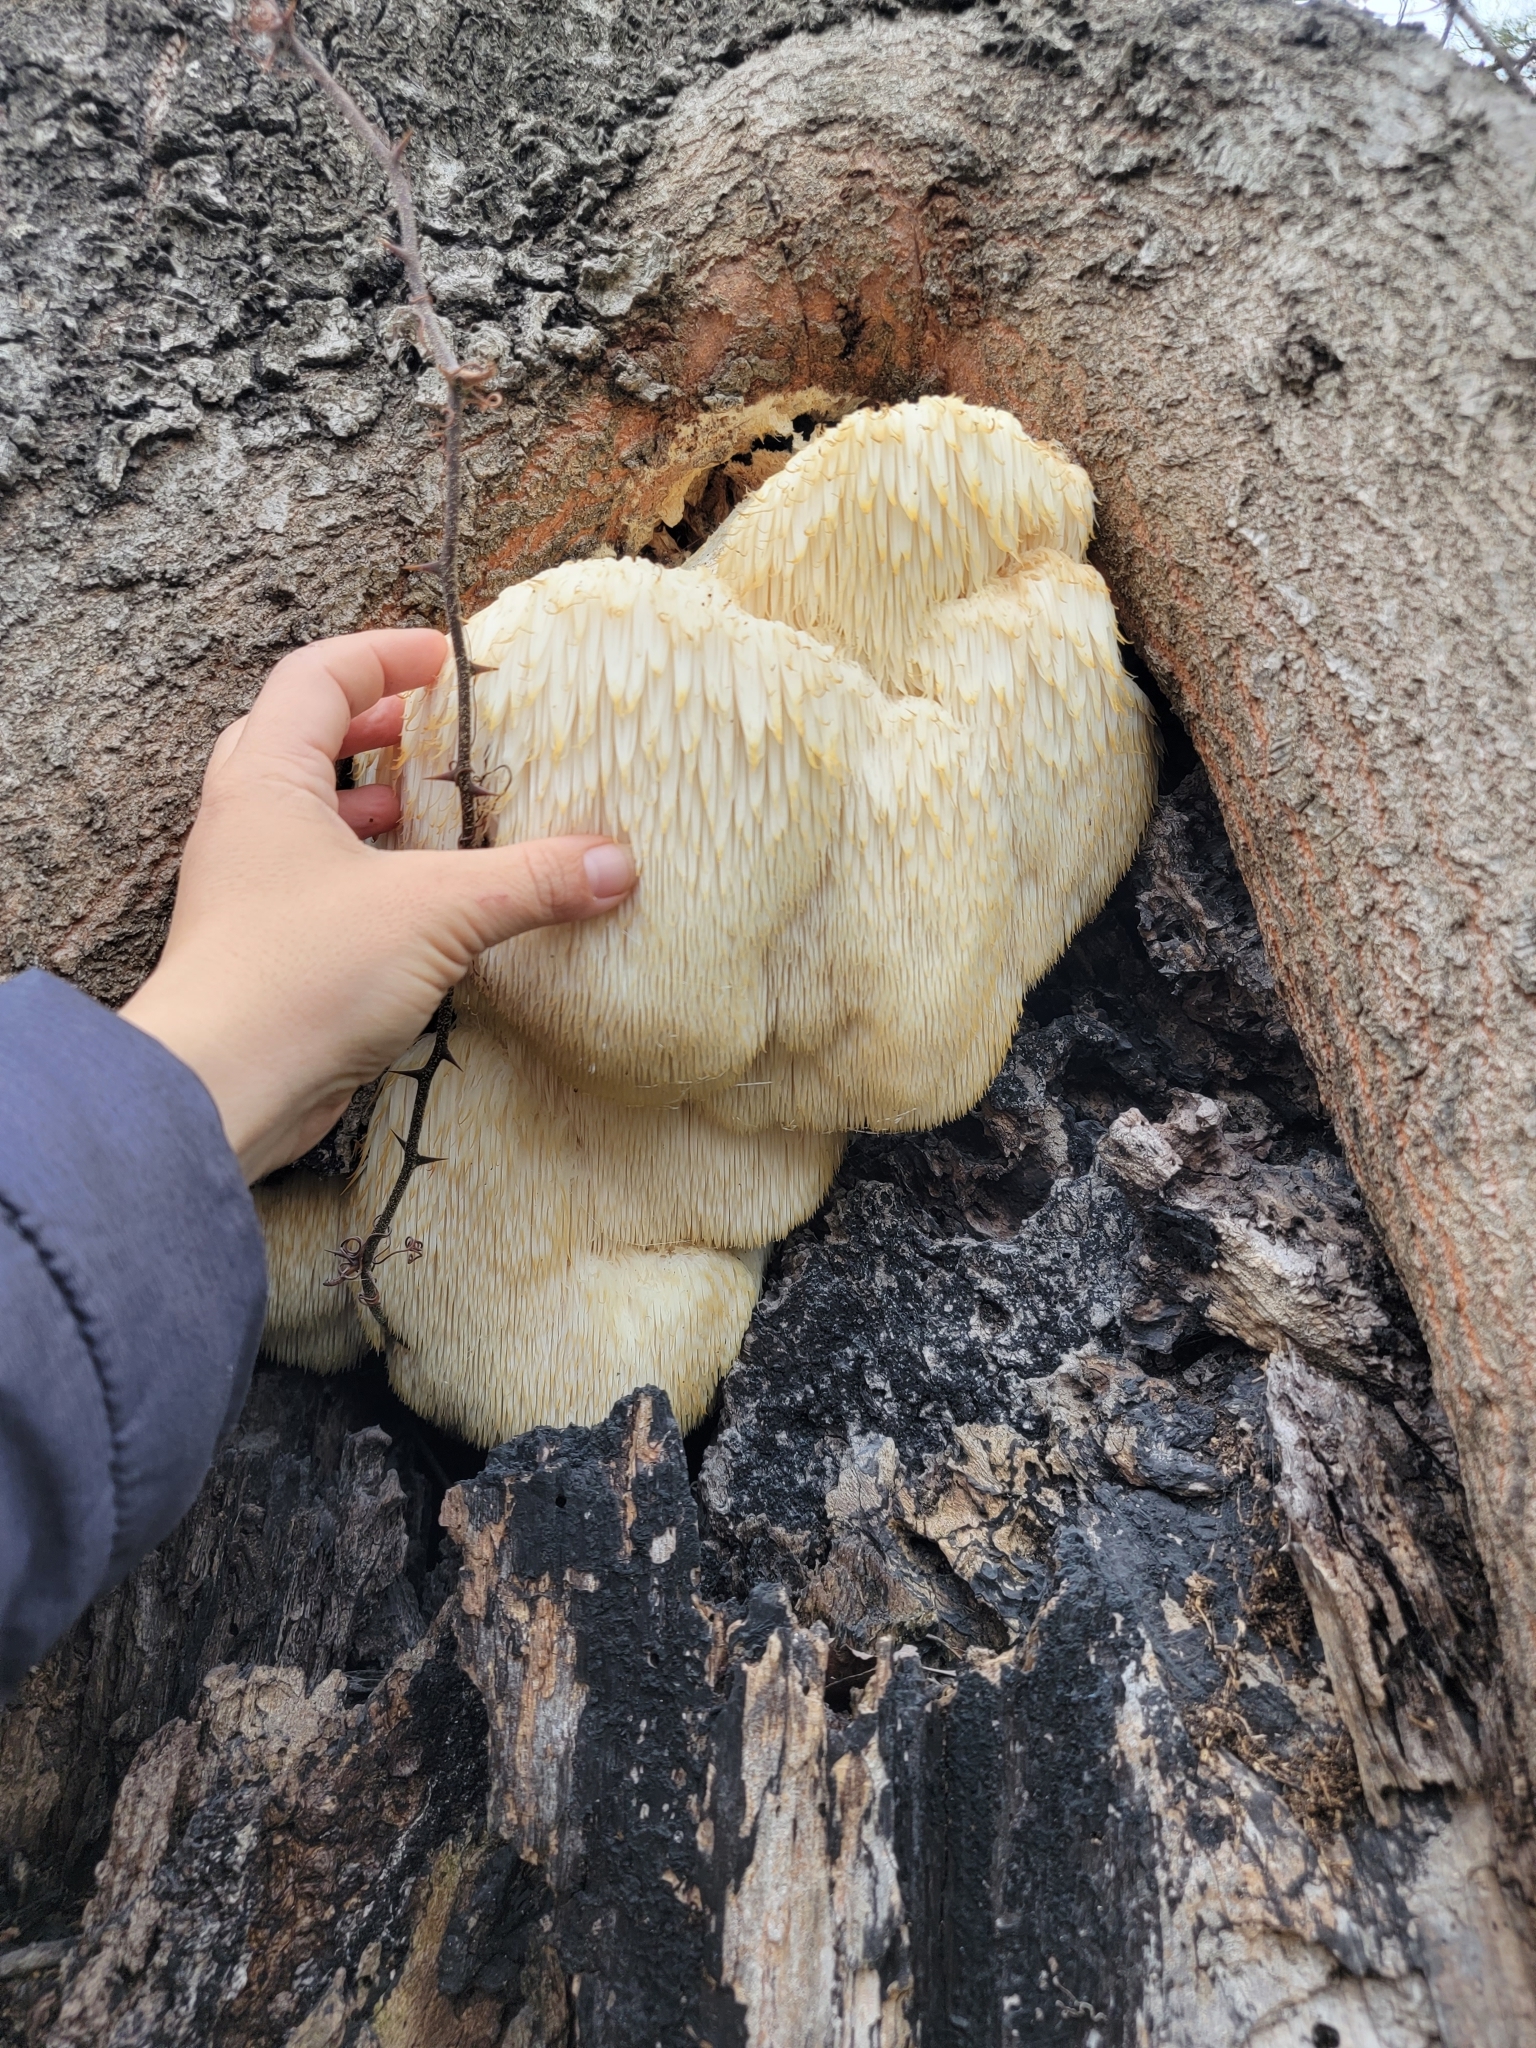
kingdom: Fungi
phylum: Basidiomycota
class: Agaricomycetes
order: Russulales
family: Hericiaceae
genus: Hericium
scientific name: Hericium erinaceus
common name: Bearded tooth
